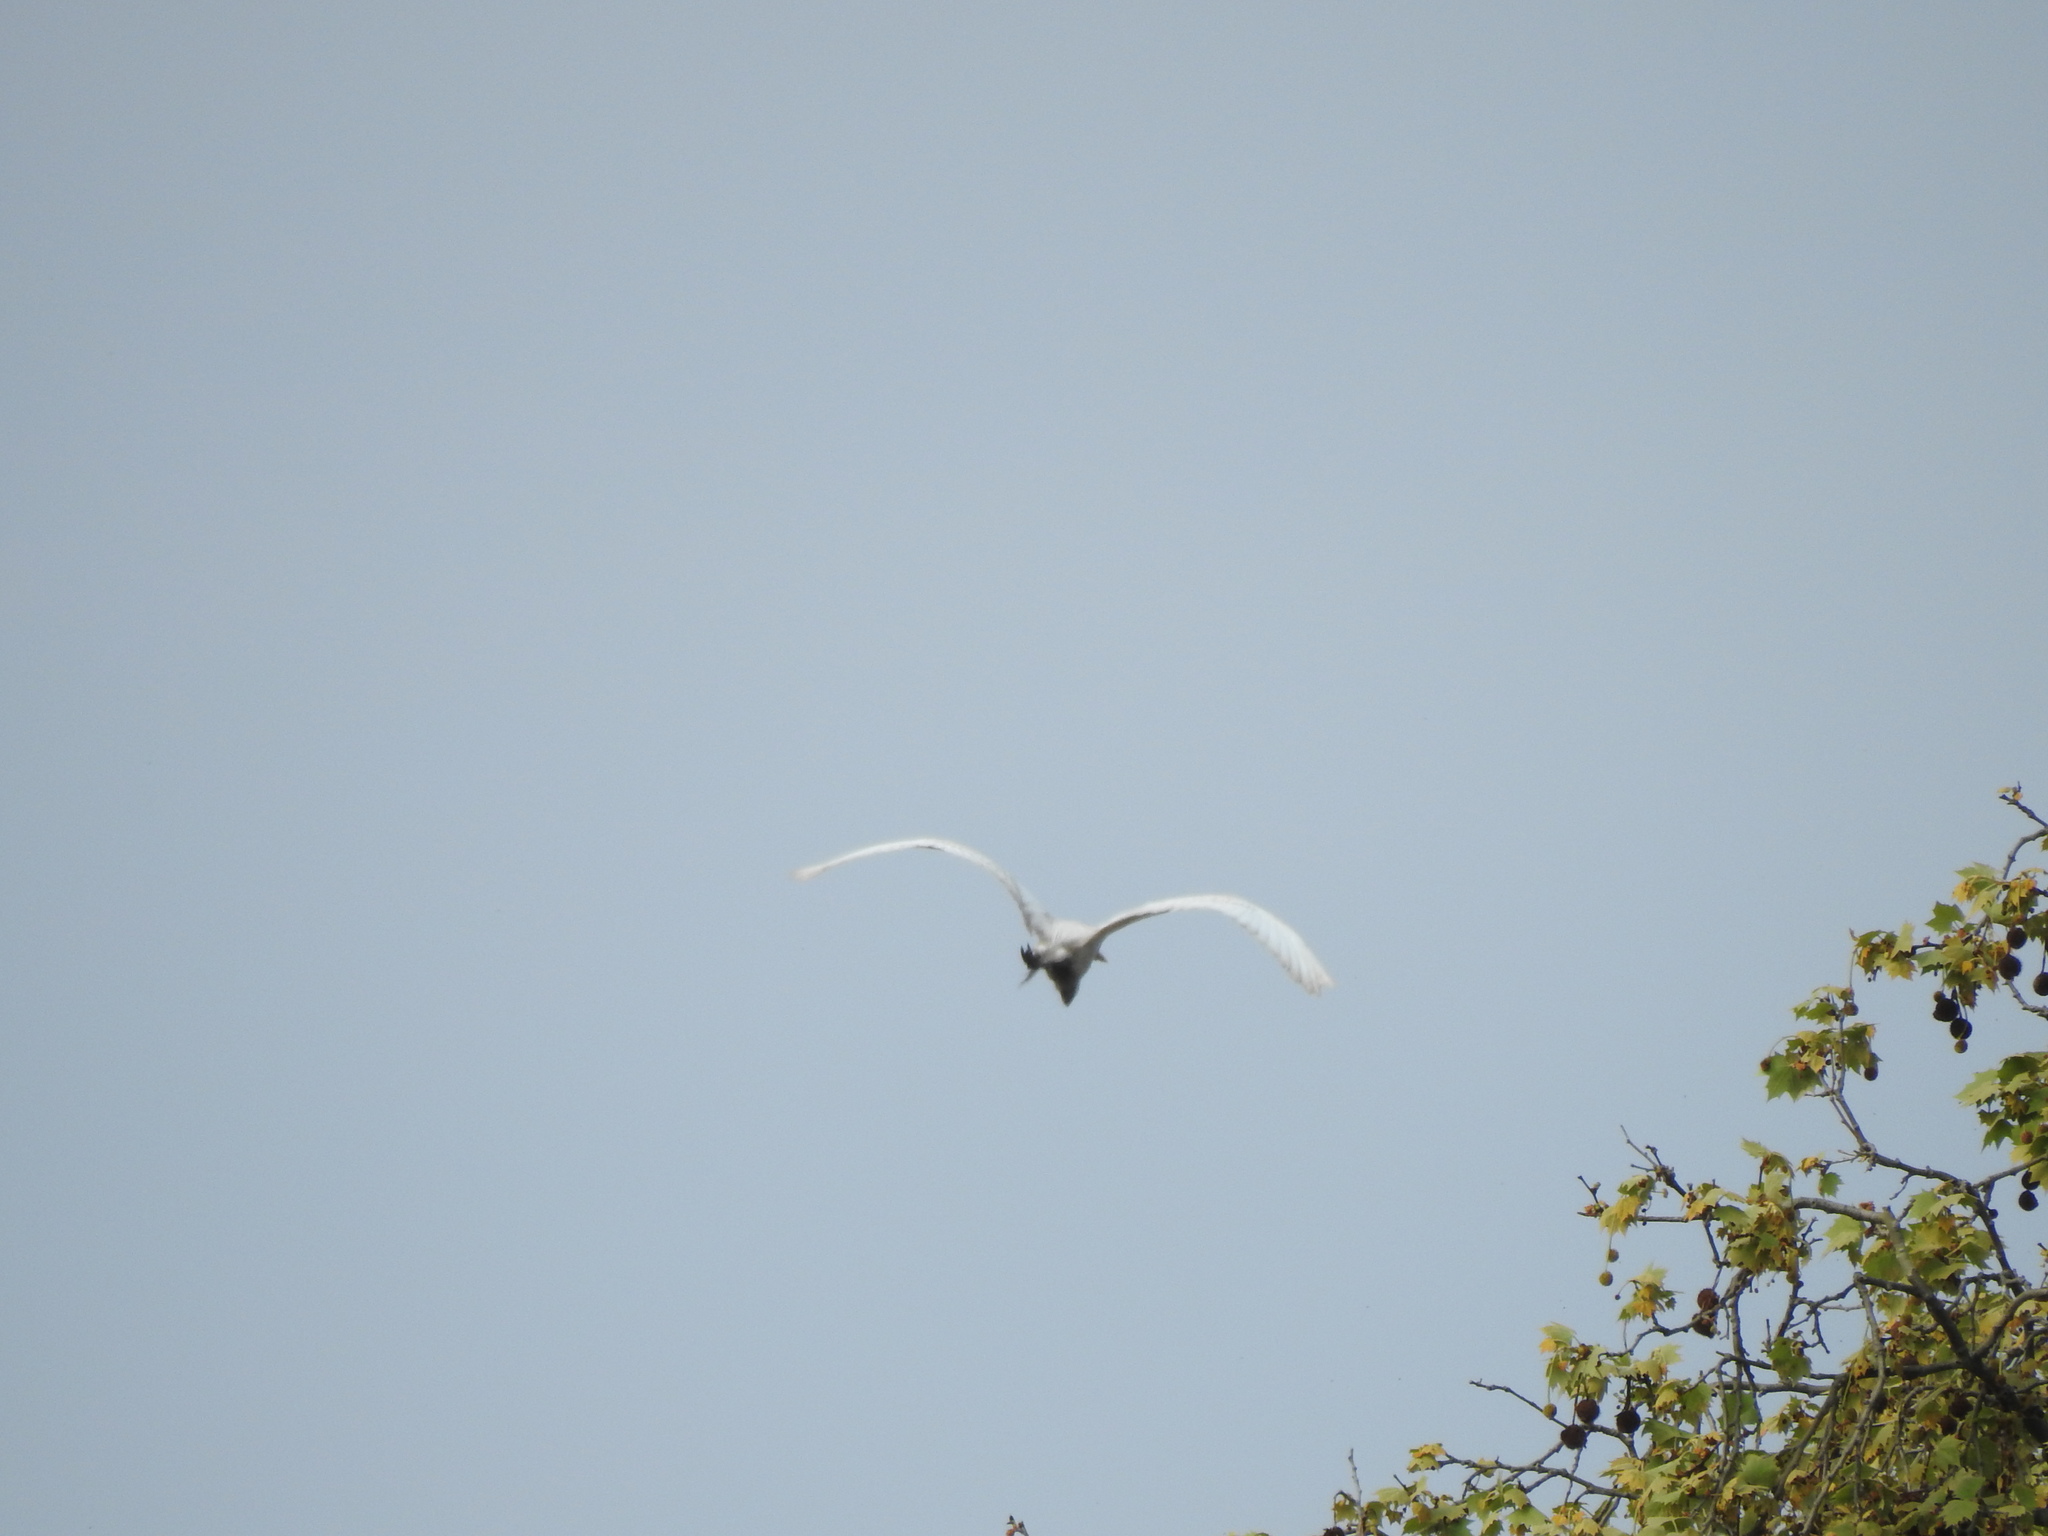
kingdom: Animalia
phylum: Chordata
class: Aves
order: Pelecaniformes
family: Ardeidae
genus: Ardea
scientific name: Ardea alba
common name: Great egret
